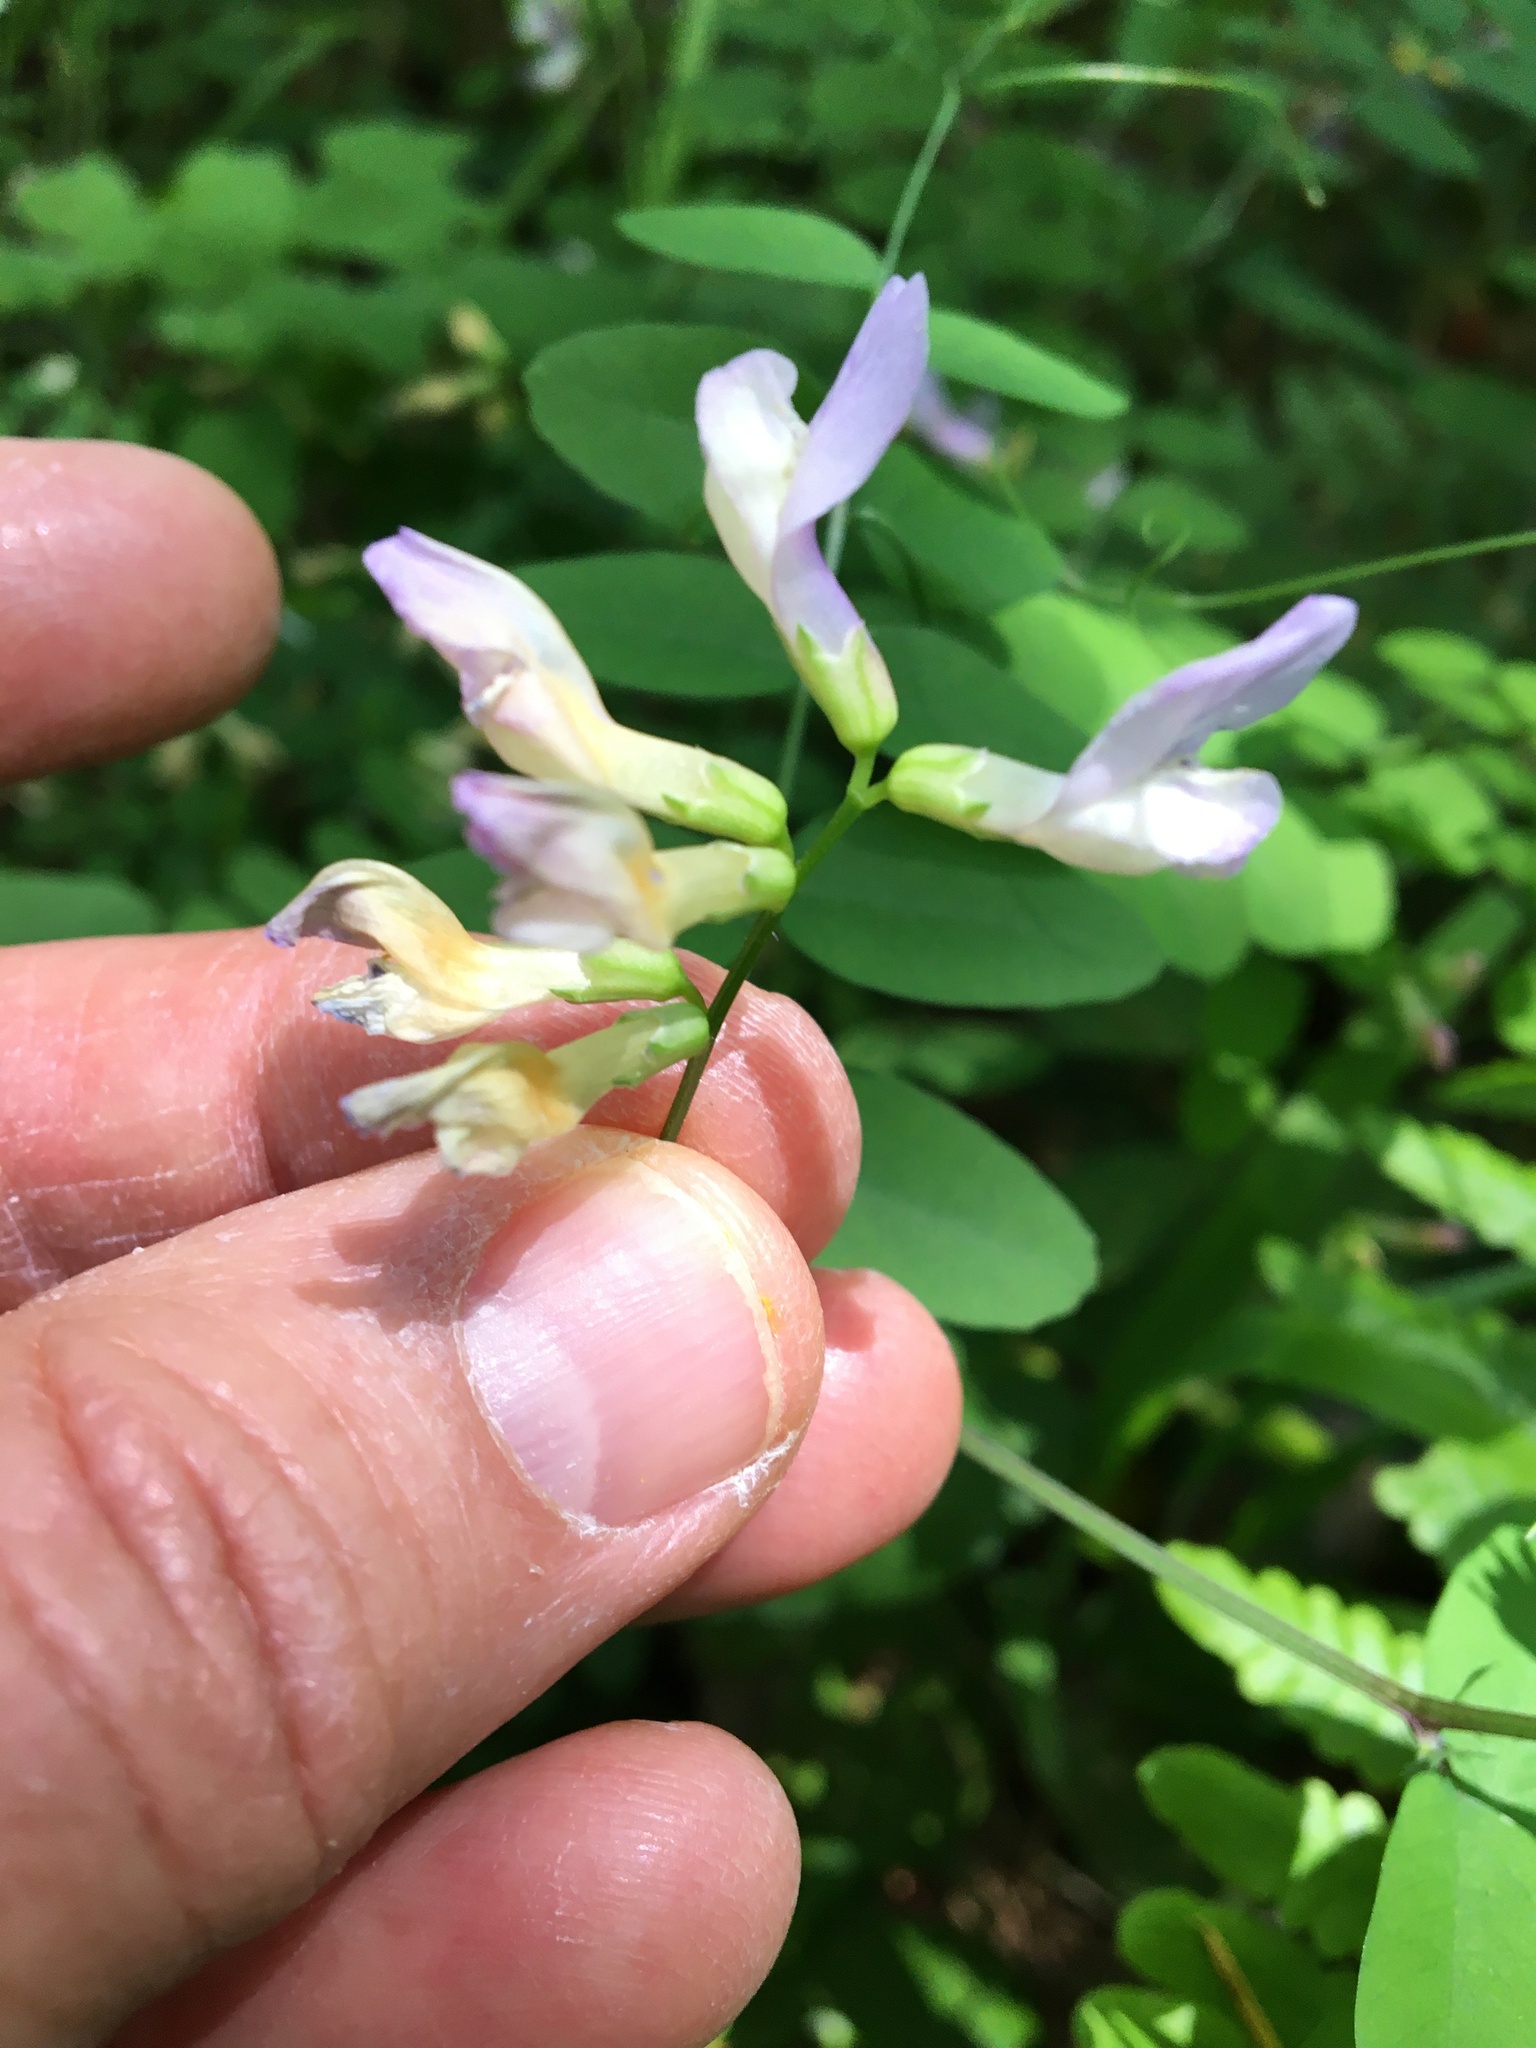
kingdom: Plantae
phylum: Tracheophyta
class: Magnoliopsida
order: Fabales
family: Fabaceae
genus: Vicia
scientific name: Vicia americana
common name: American vetch
